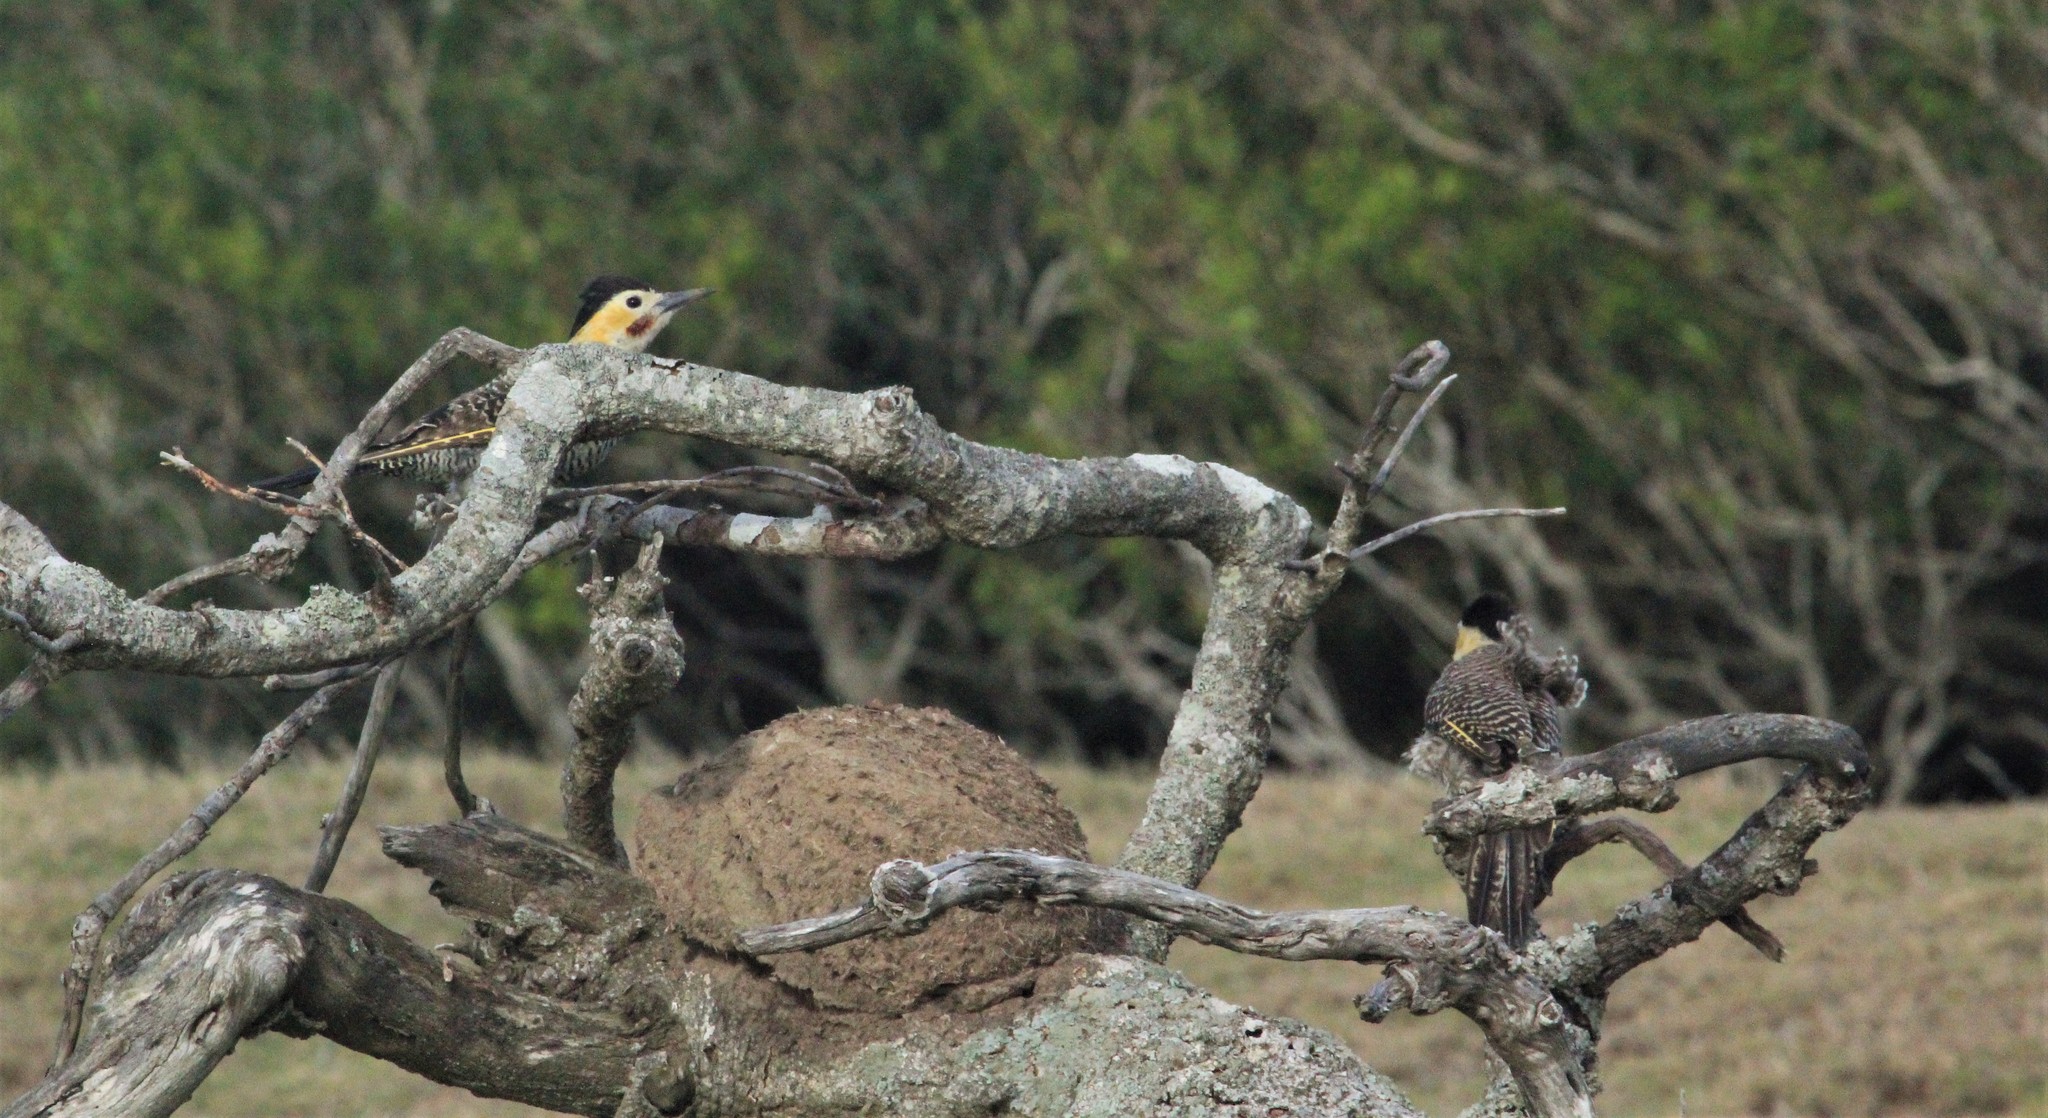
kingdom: Animalia
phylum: Chordata
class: Aves
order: Piciformes
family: Picidae
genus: Colaptes
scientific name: Colaptes campestris
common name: Campo flicker
